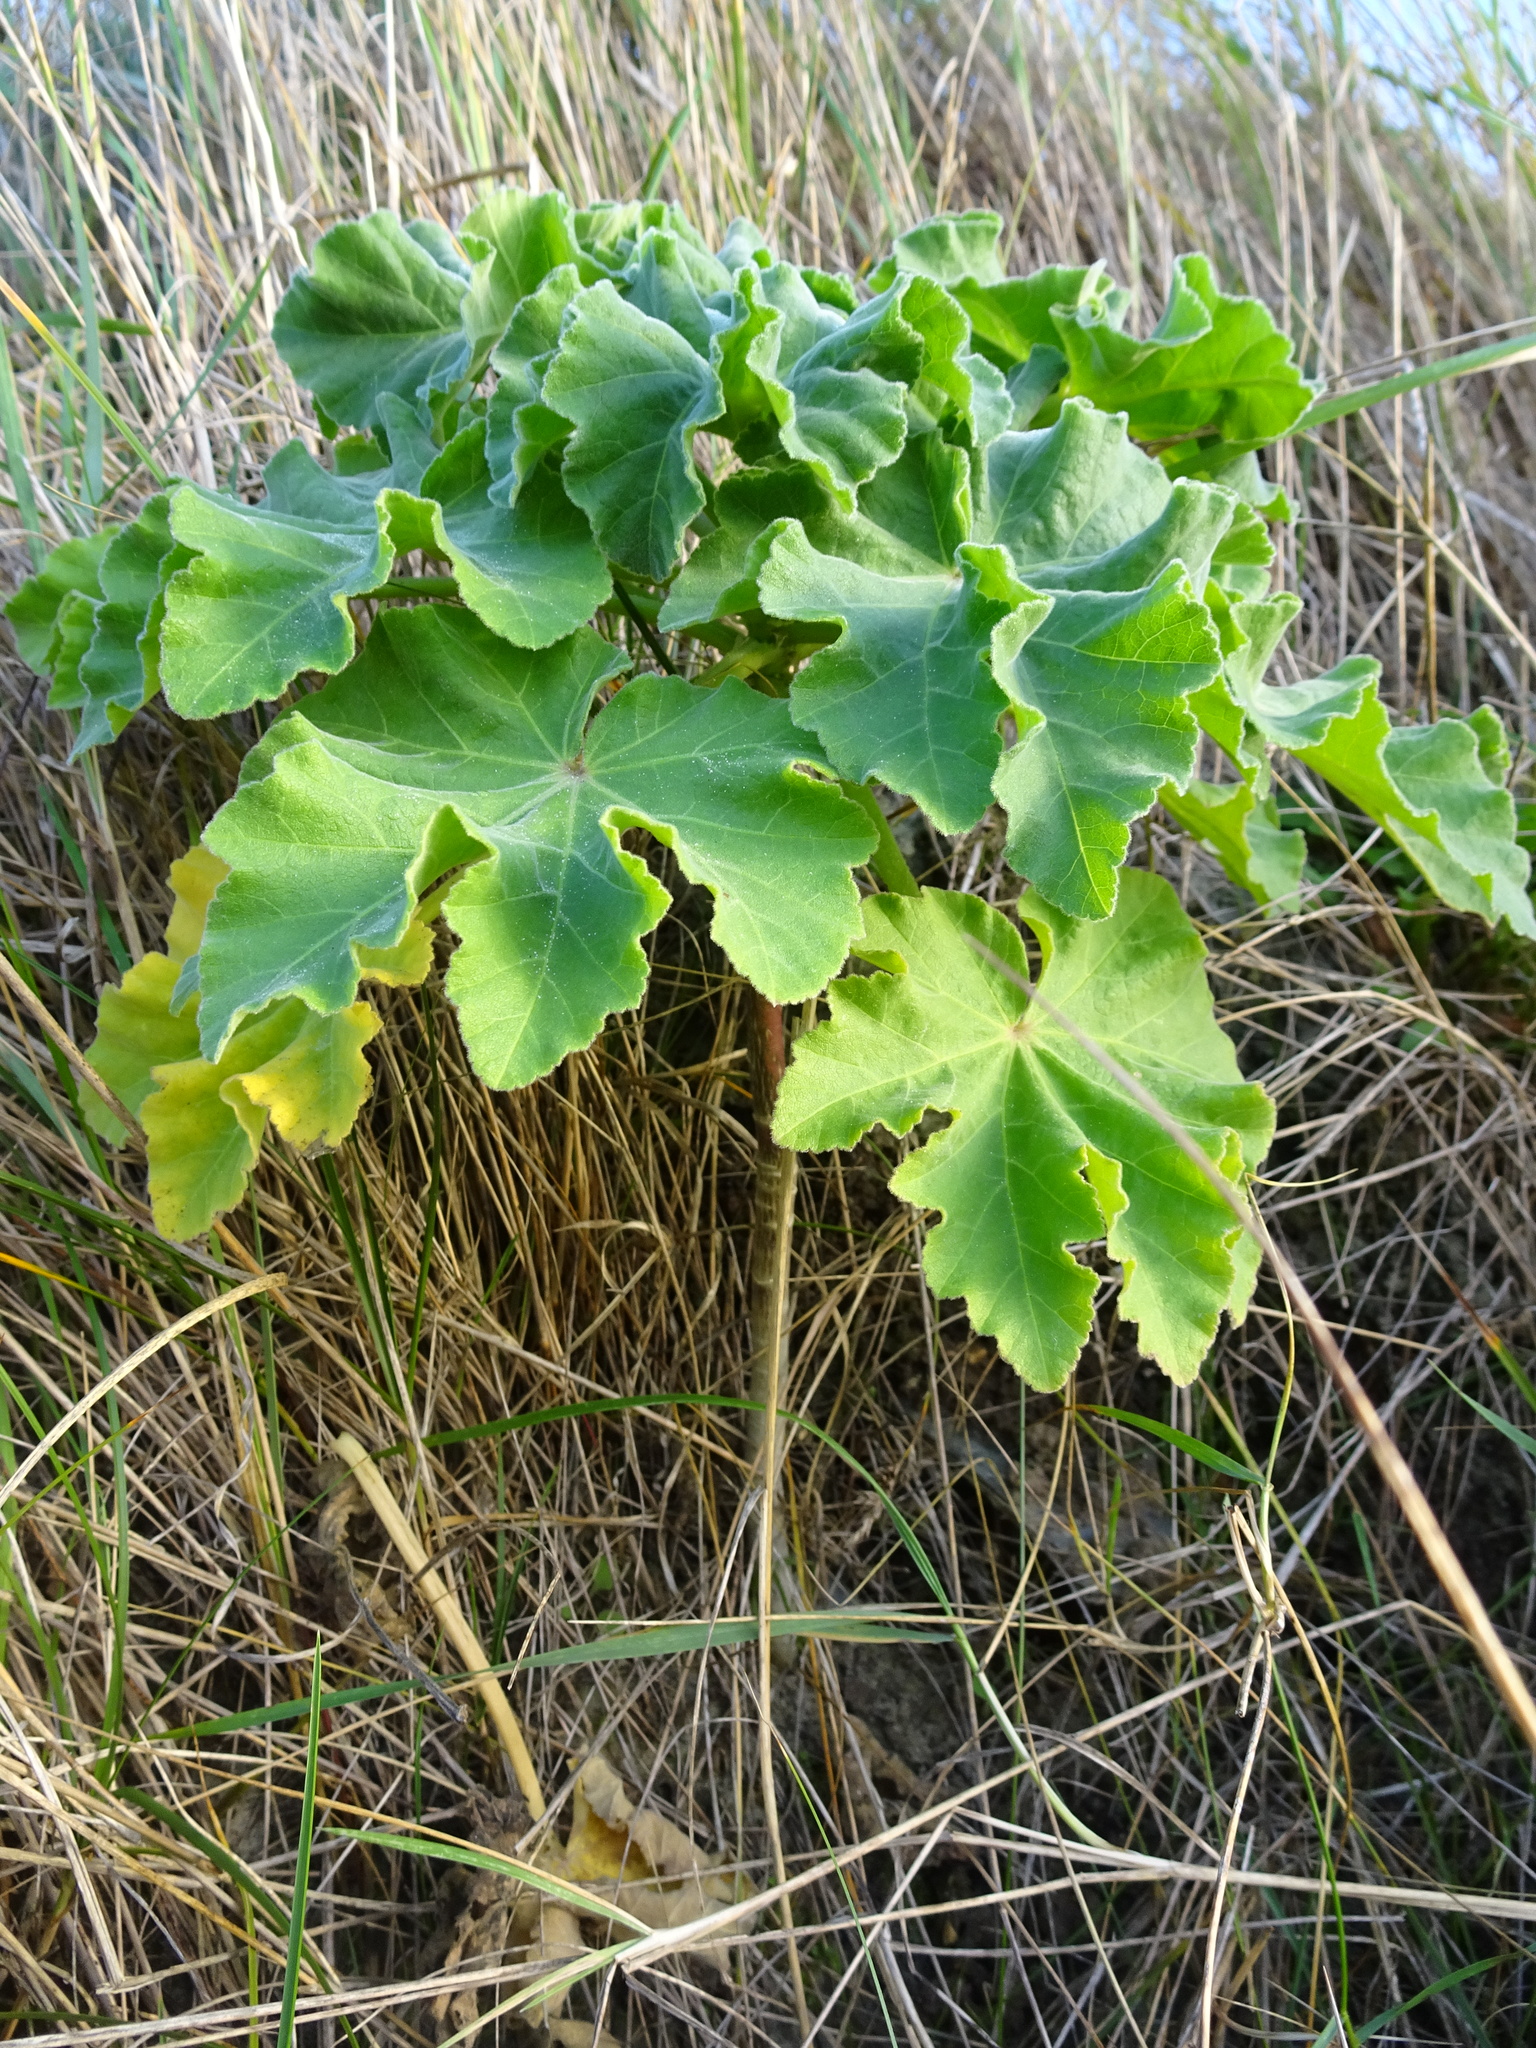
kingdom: Plantae
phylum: Tracheophyta
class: Magnoliopsida
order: Malvales
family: Malvaceae
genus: Malva
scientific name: Malva arborea
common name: Tree mallow
